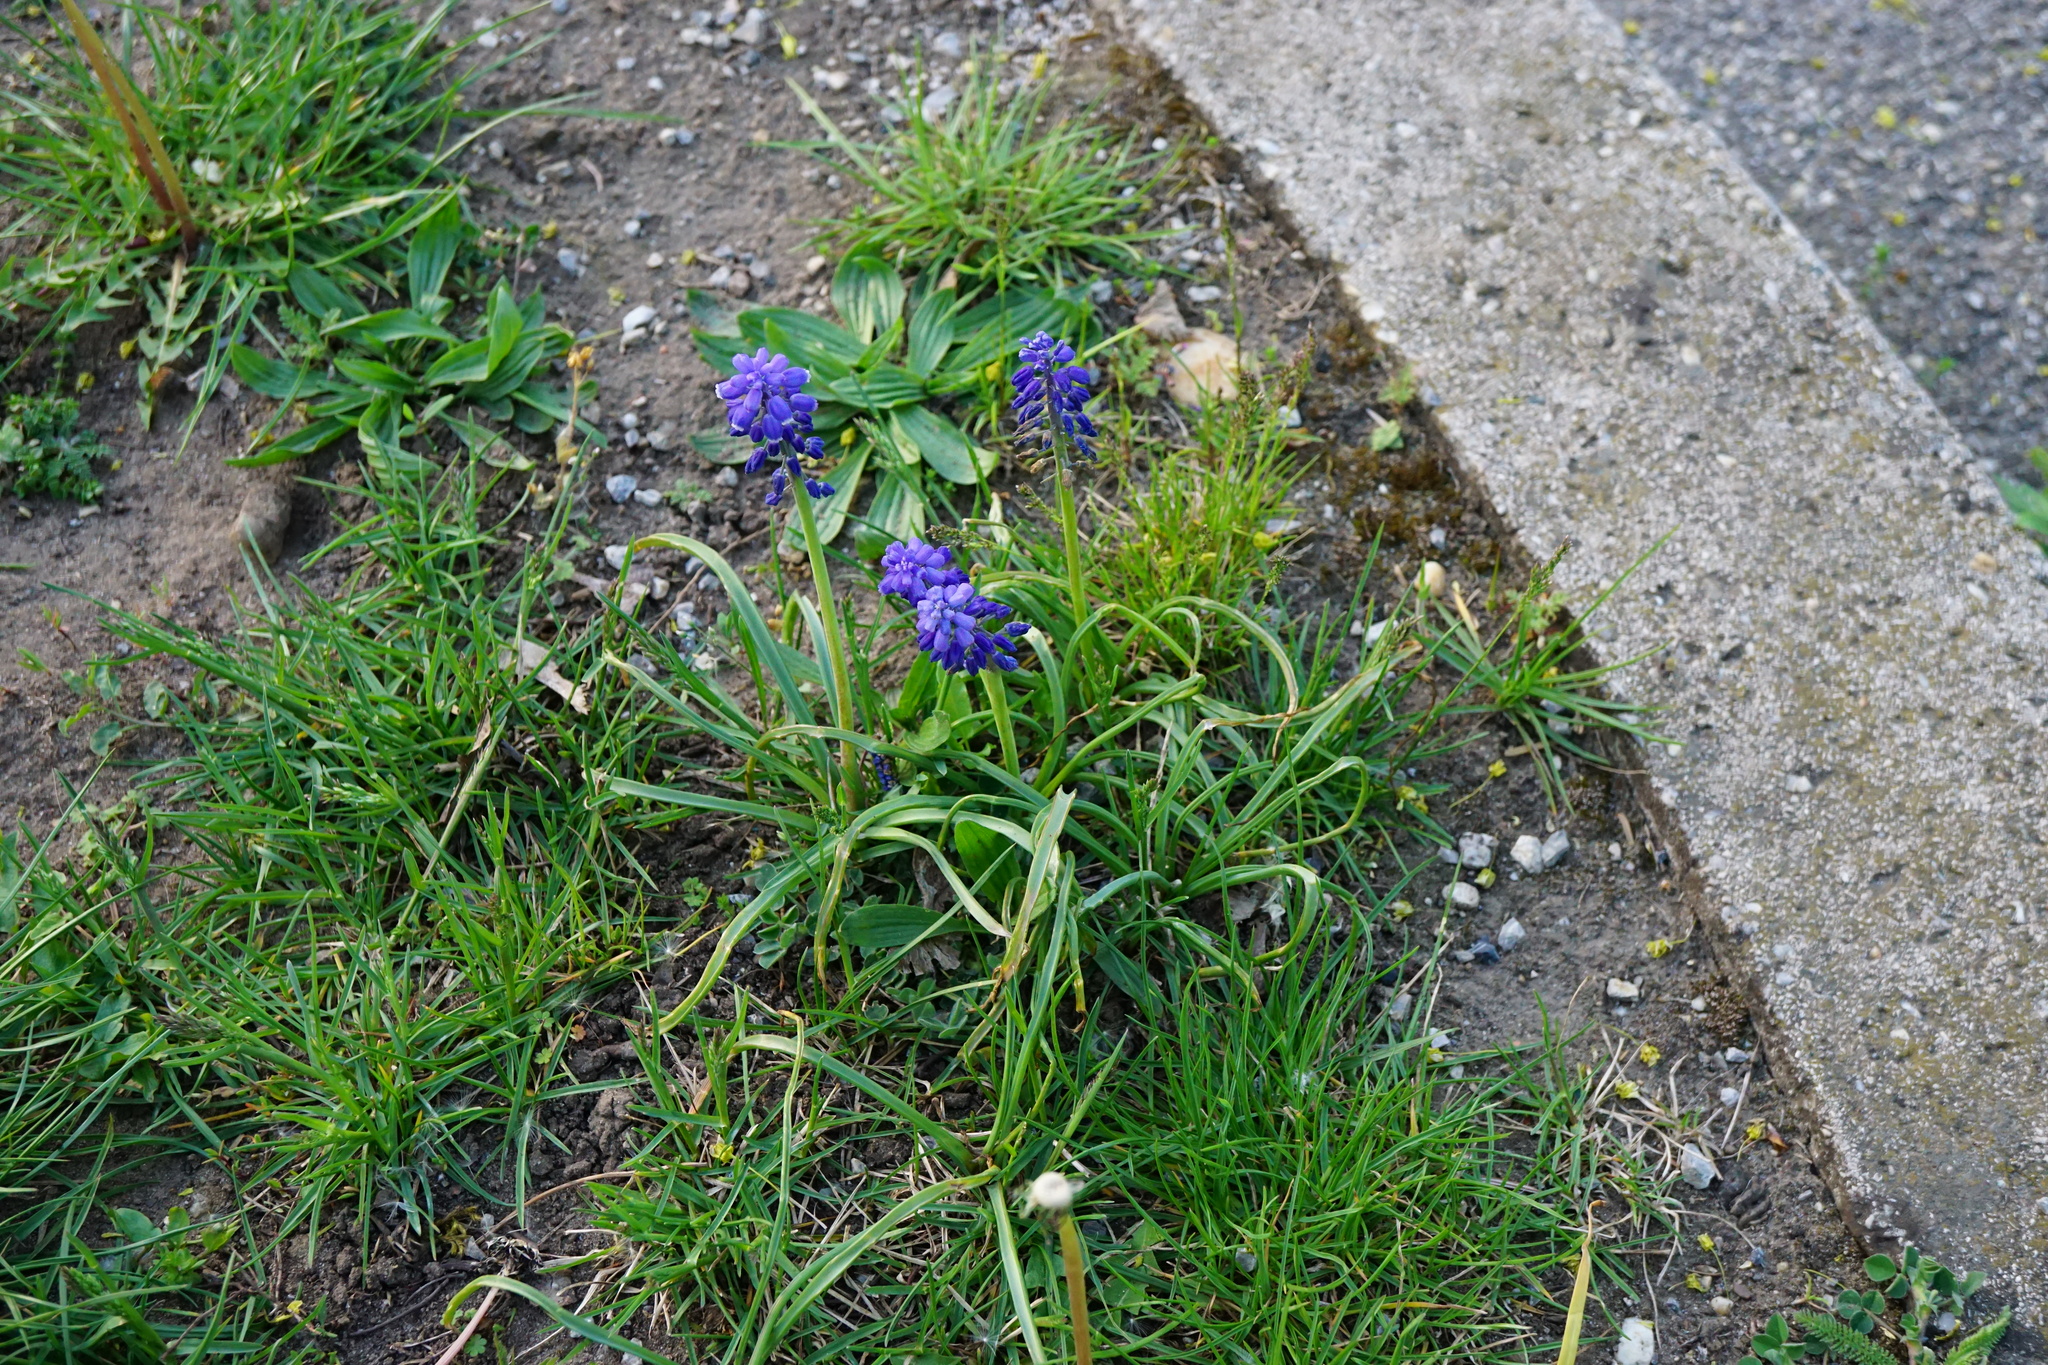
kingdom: Plantae
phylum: Tracheophyta
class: Liliopsida
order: Asparagales
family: Asparagaceae
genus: Muscari
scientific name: Muscari armeniacum
